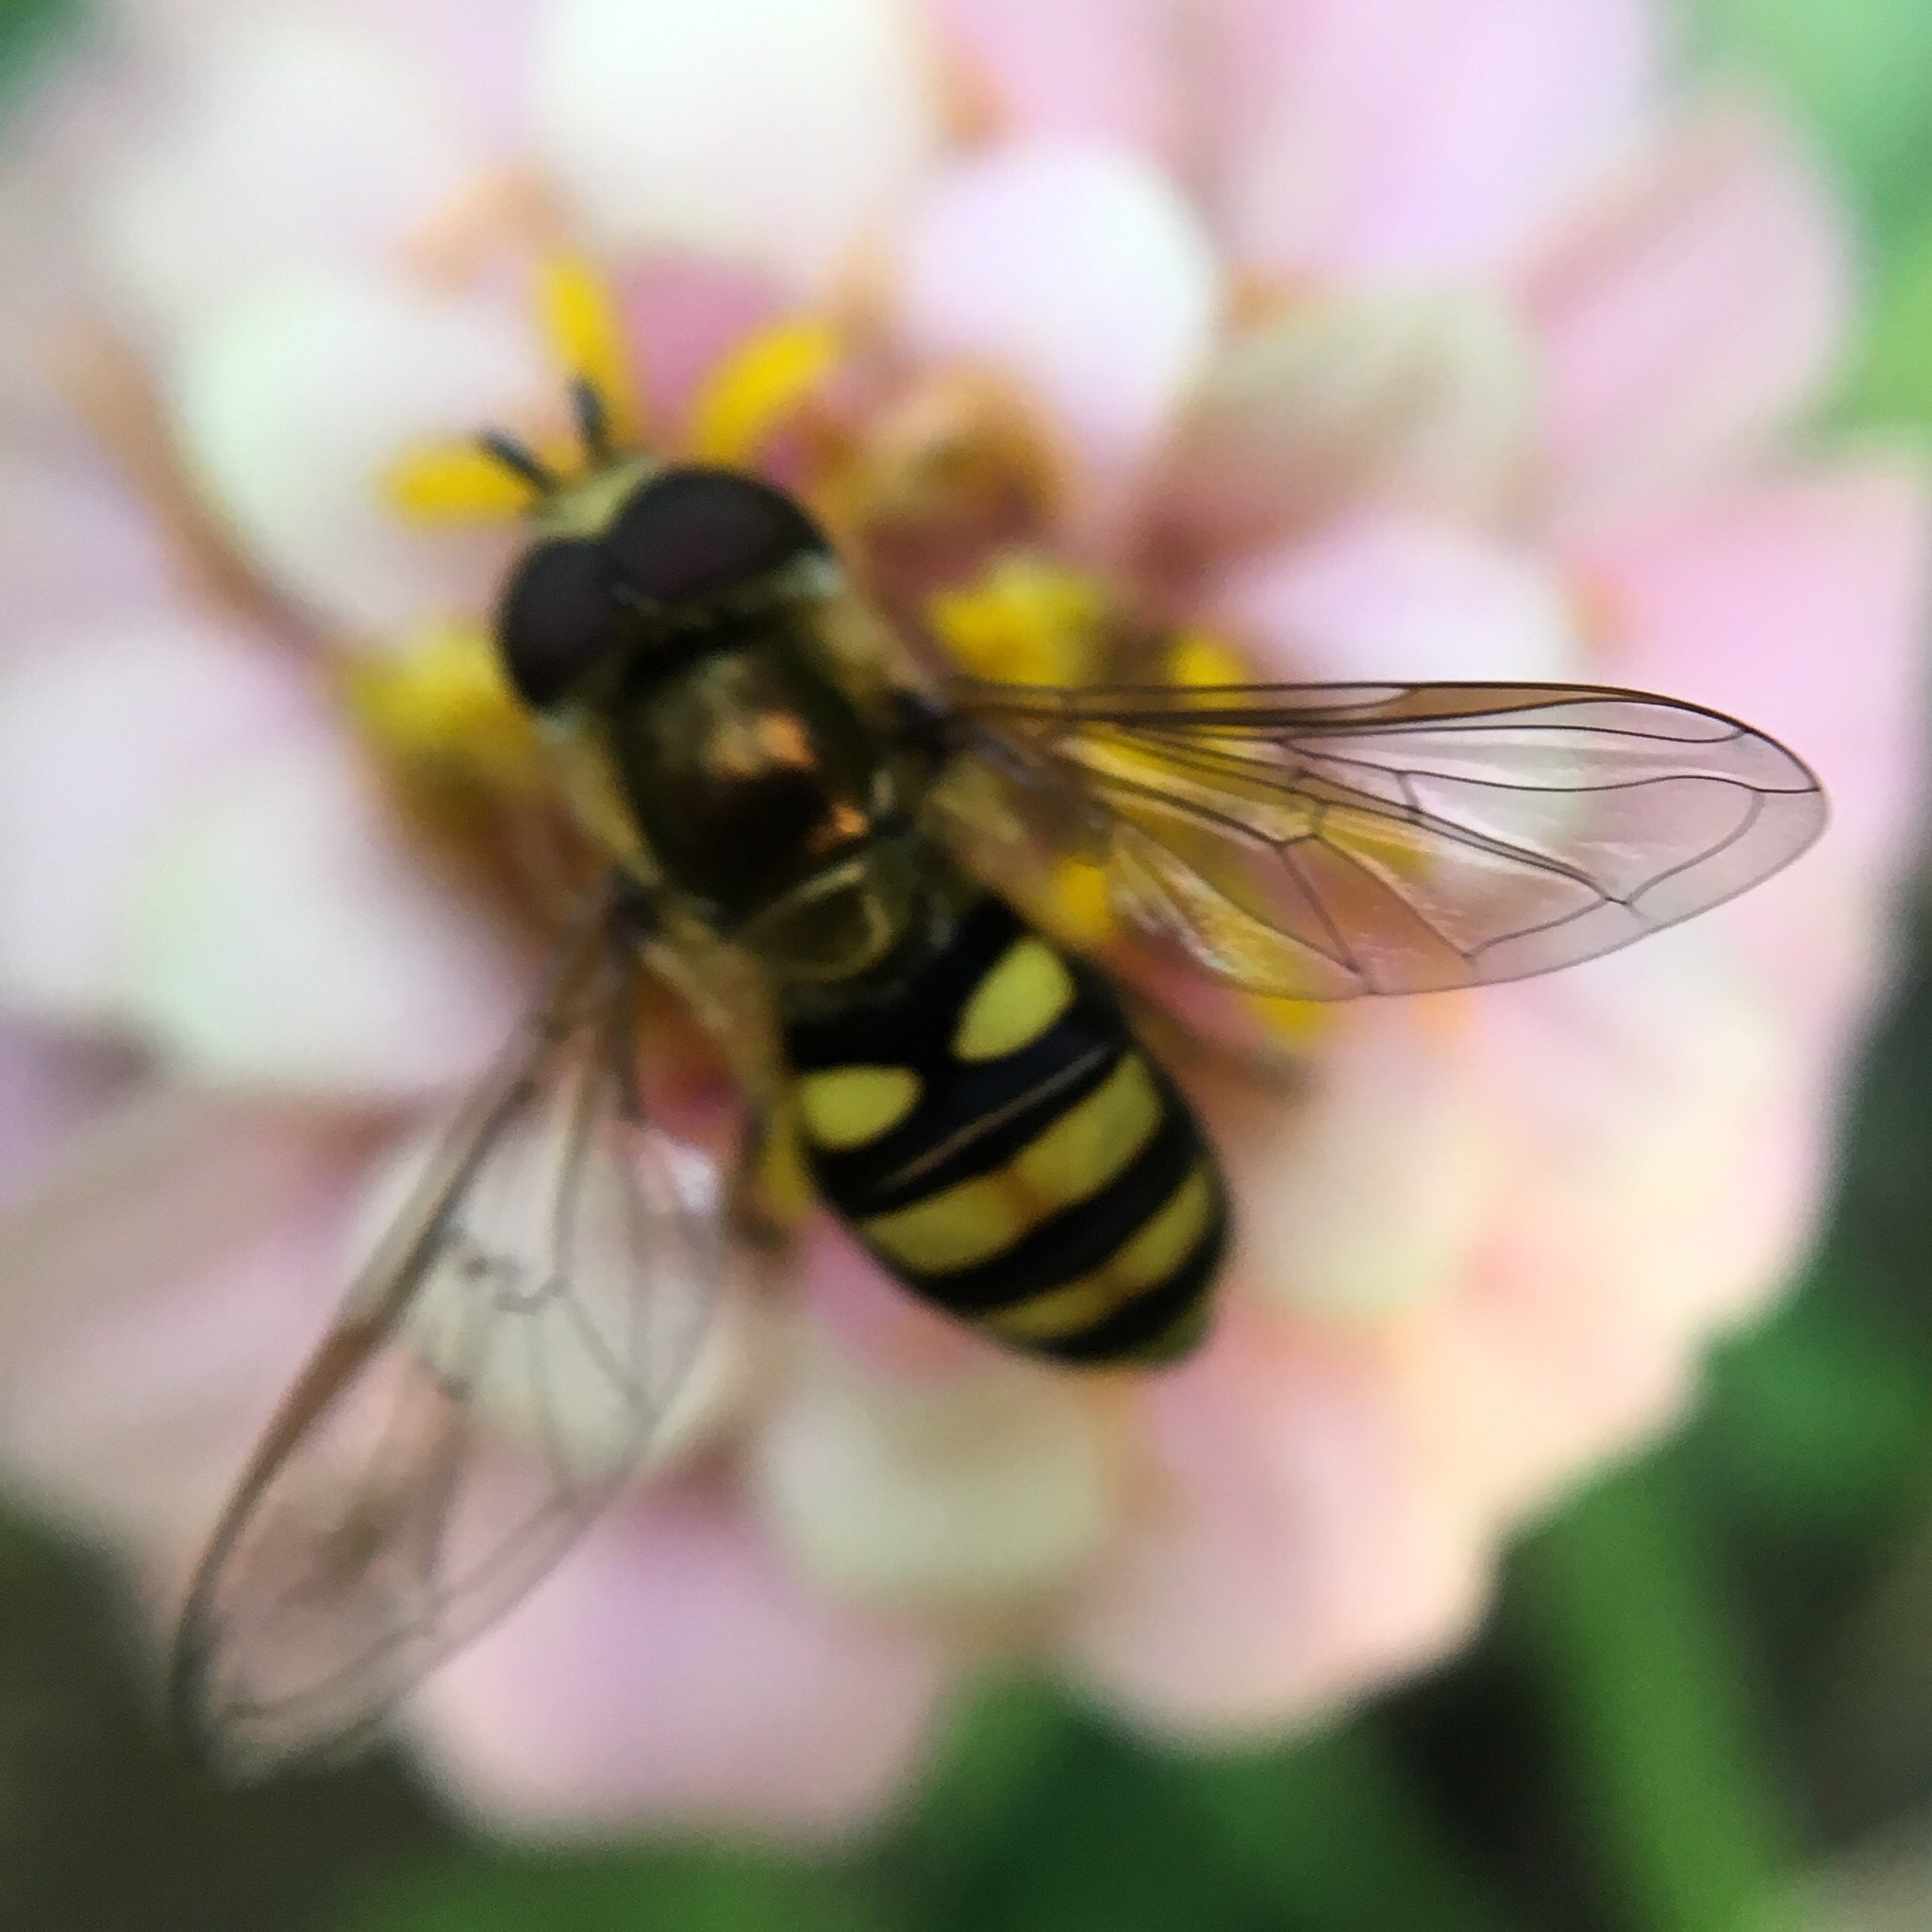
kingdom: Animalia
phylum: Arthropoda
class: Insecta
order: Diptera
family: Syrphidae
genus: Eupeodes
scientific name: Eupeodes
